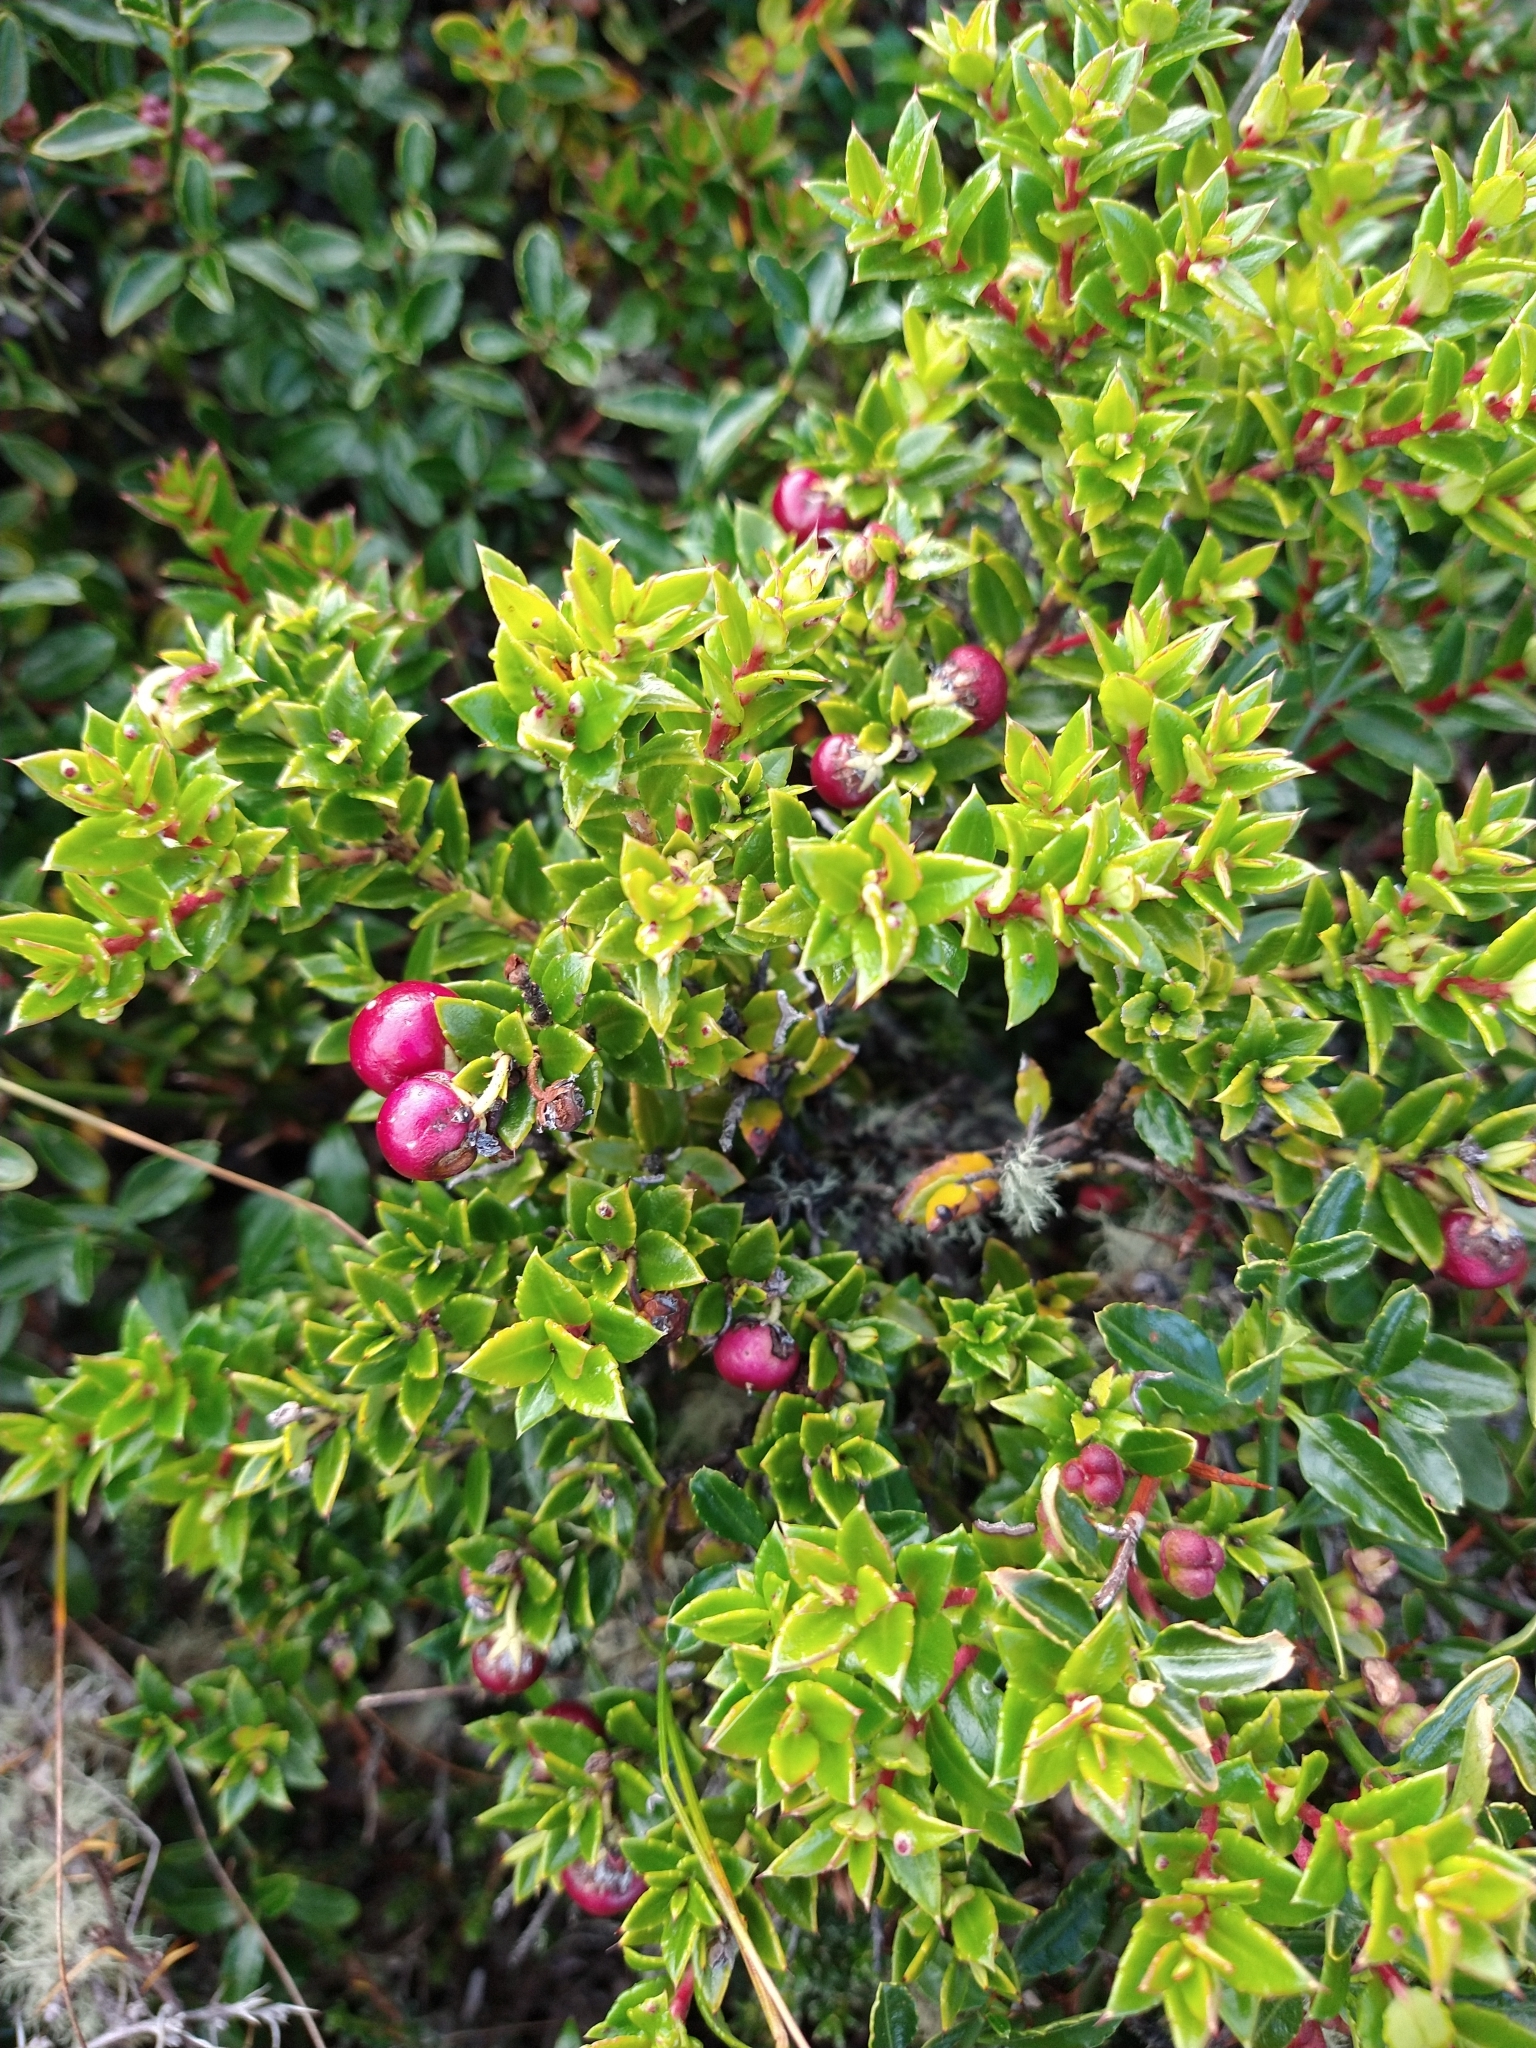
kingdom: Plantae
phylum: Tracheophyta
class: Magnoliopsida
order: Ericales
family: Ericaceae
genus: Gaultheria
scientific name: Gaultheria mucronata
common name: Prickly heath
